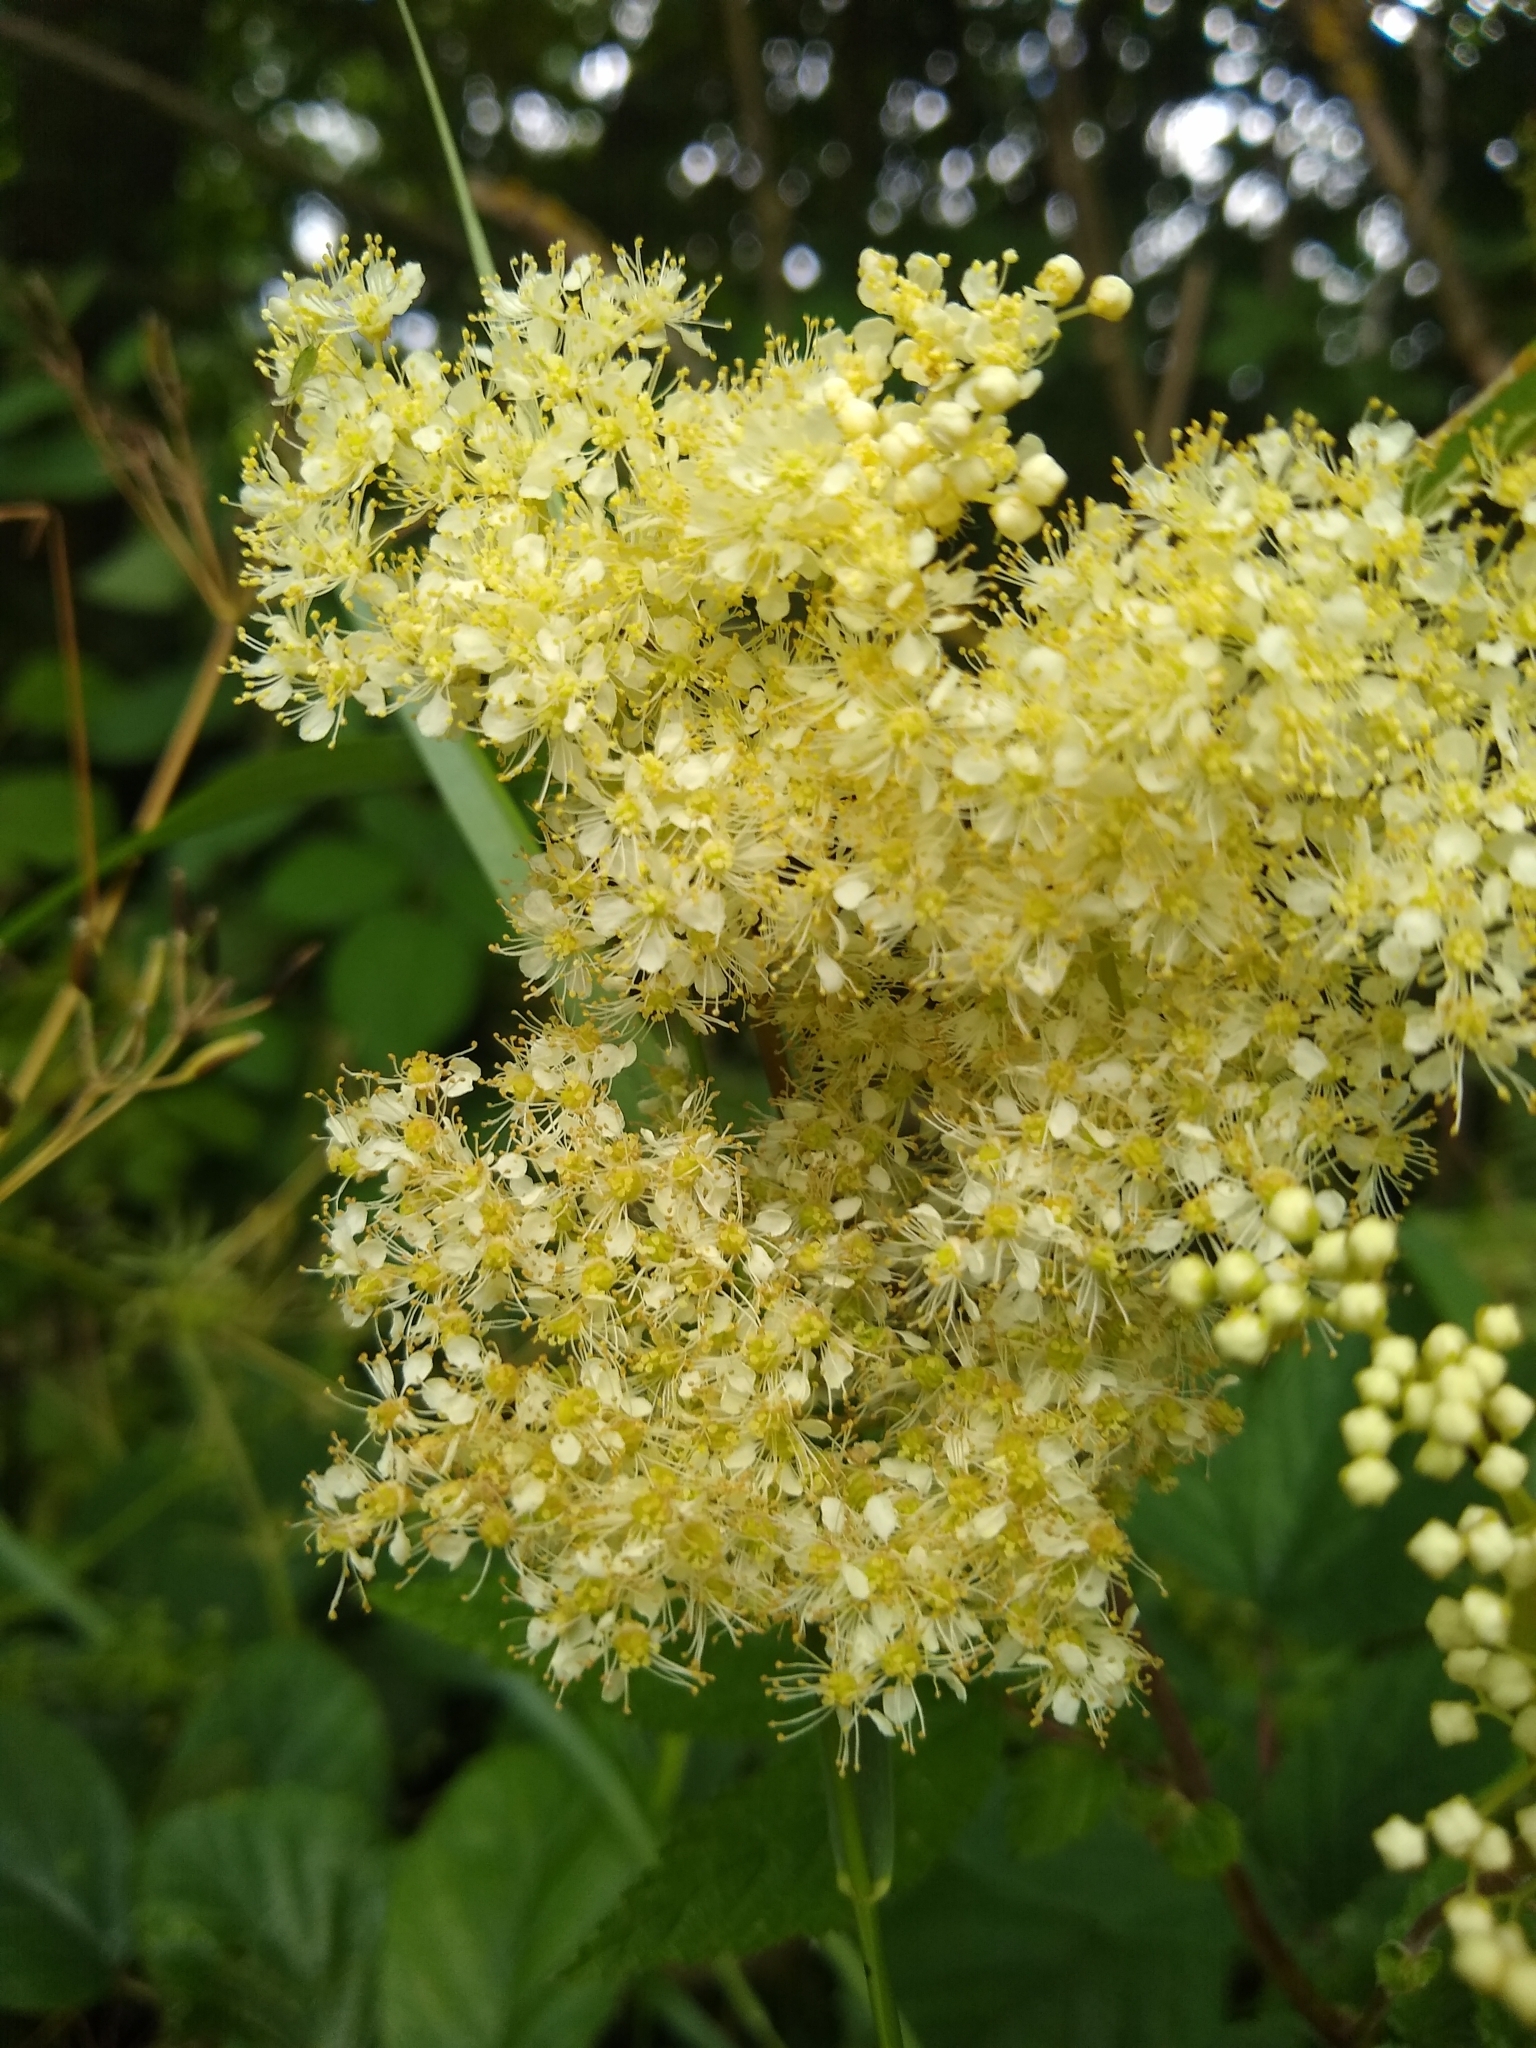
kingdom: Plantae
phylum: Tracheophyta
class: Magnoliopsida
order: Rosales
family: Rosaceae
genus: Filipendula
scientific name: Filipendula ulmaria
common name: Meadowsweet
